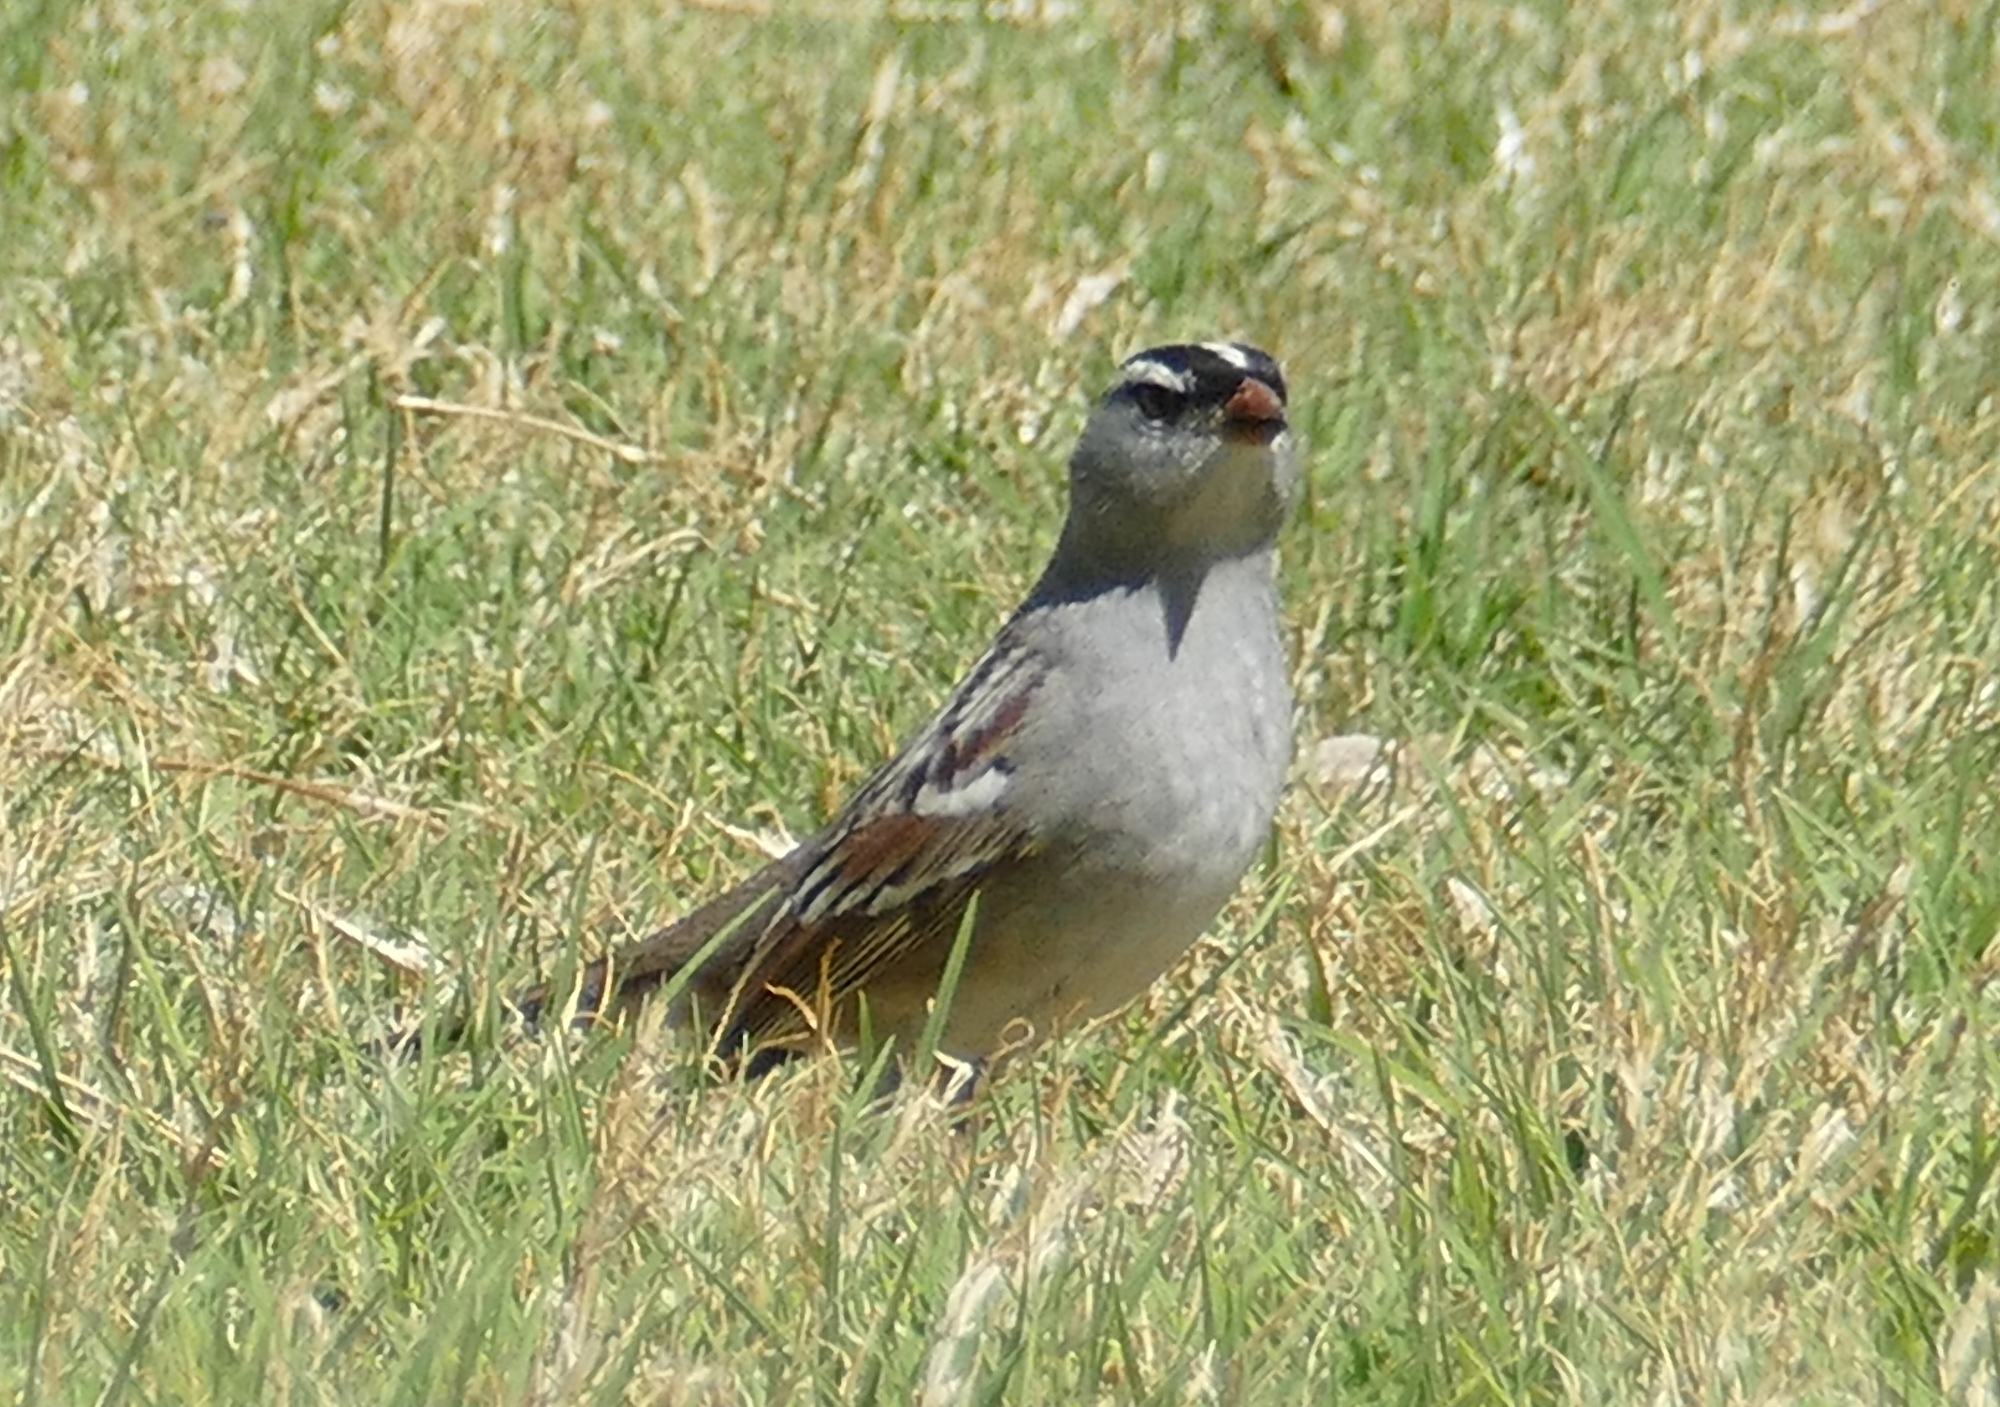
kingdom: Animalia
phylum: Chordata
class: Aves
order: Passeriformes
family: Passerellidae
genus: Zonotrichia
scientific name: Zonotrichia leucophrys
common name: White-crowned sparrow
